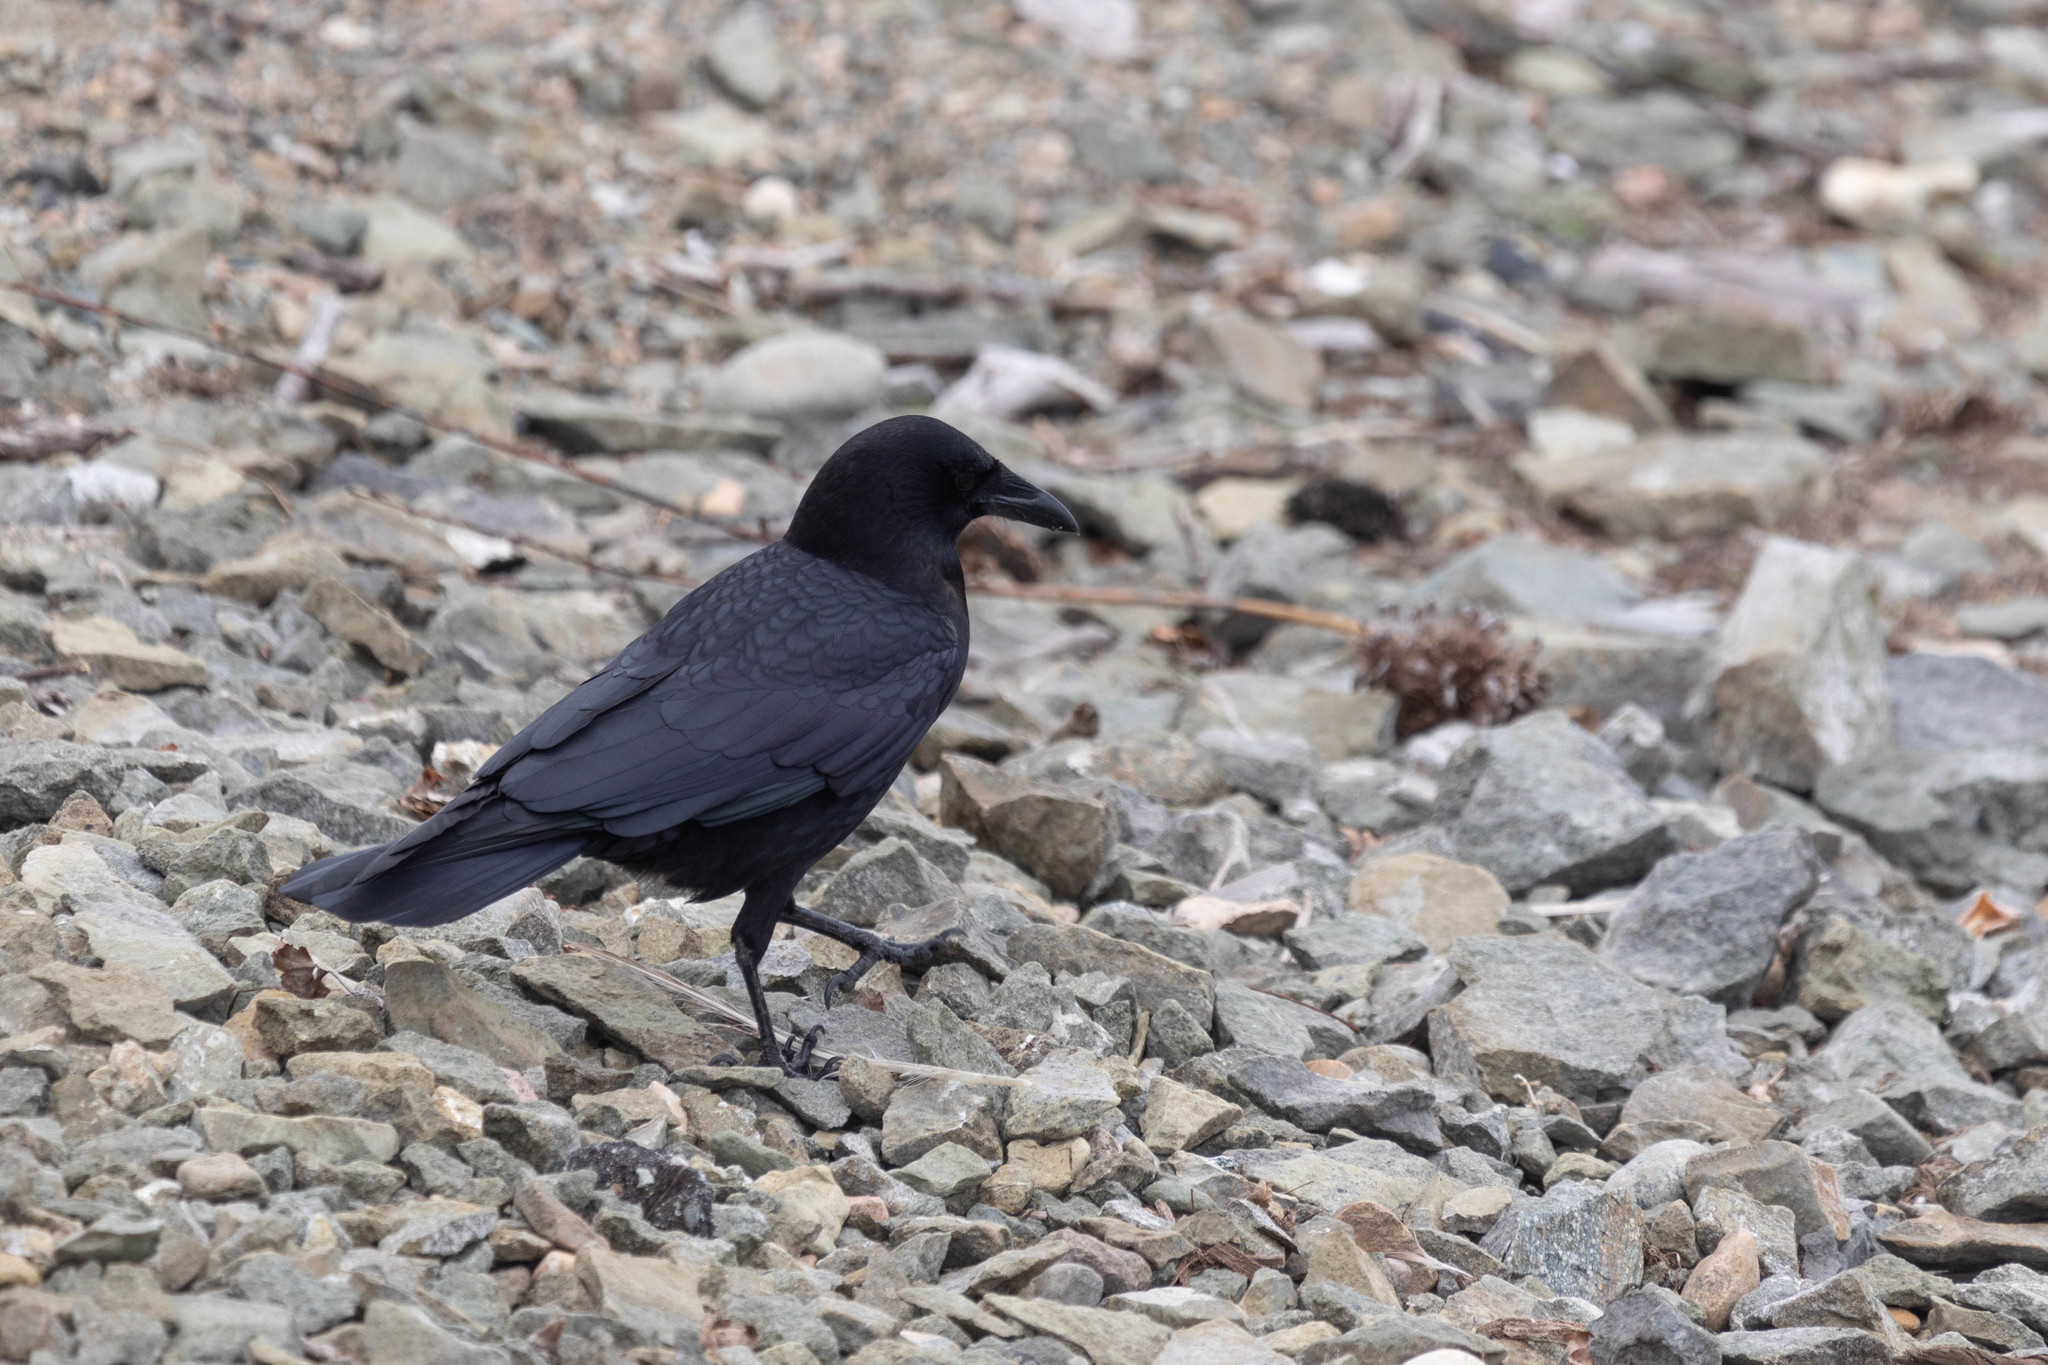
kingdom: Animalia
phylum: Chordata
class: Aves
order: Passeriformes
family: Corvidae
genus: Corvus
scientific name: Corvus brachyrhynchos
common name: American crow
